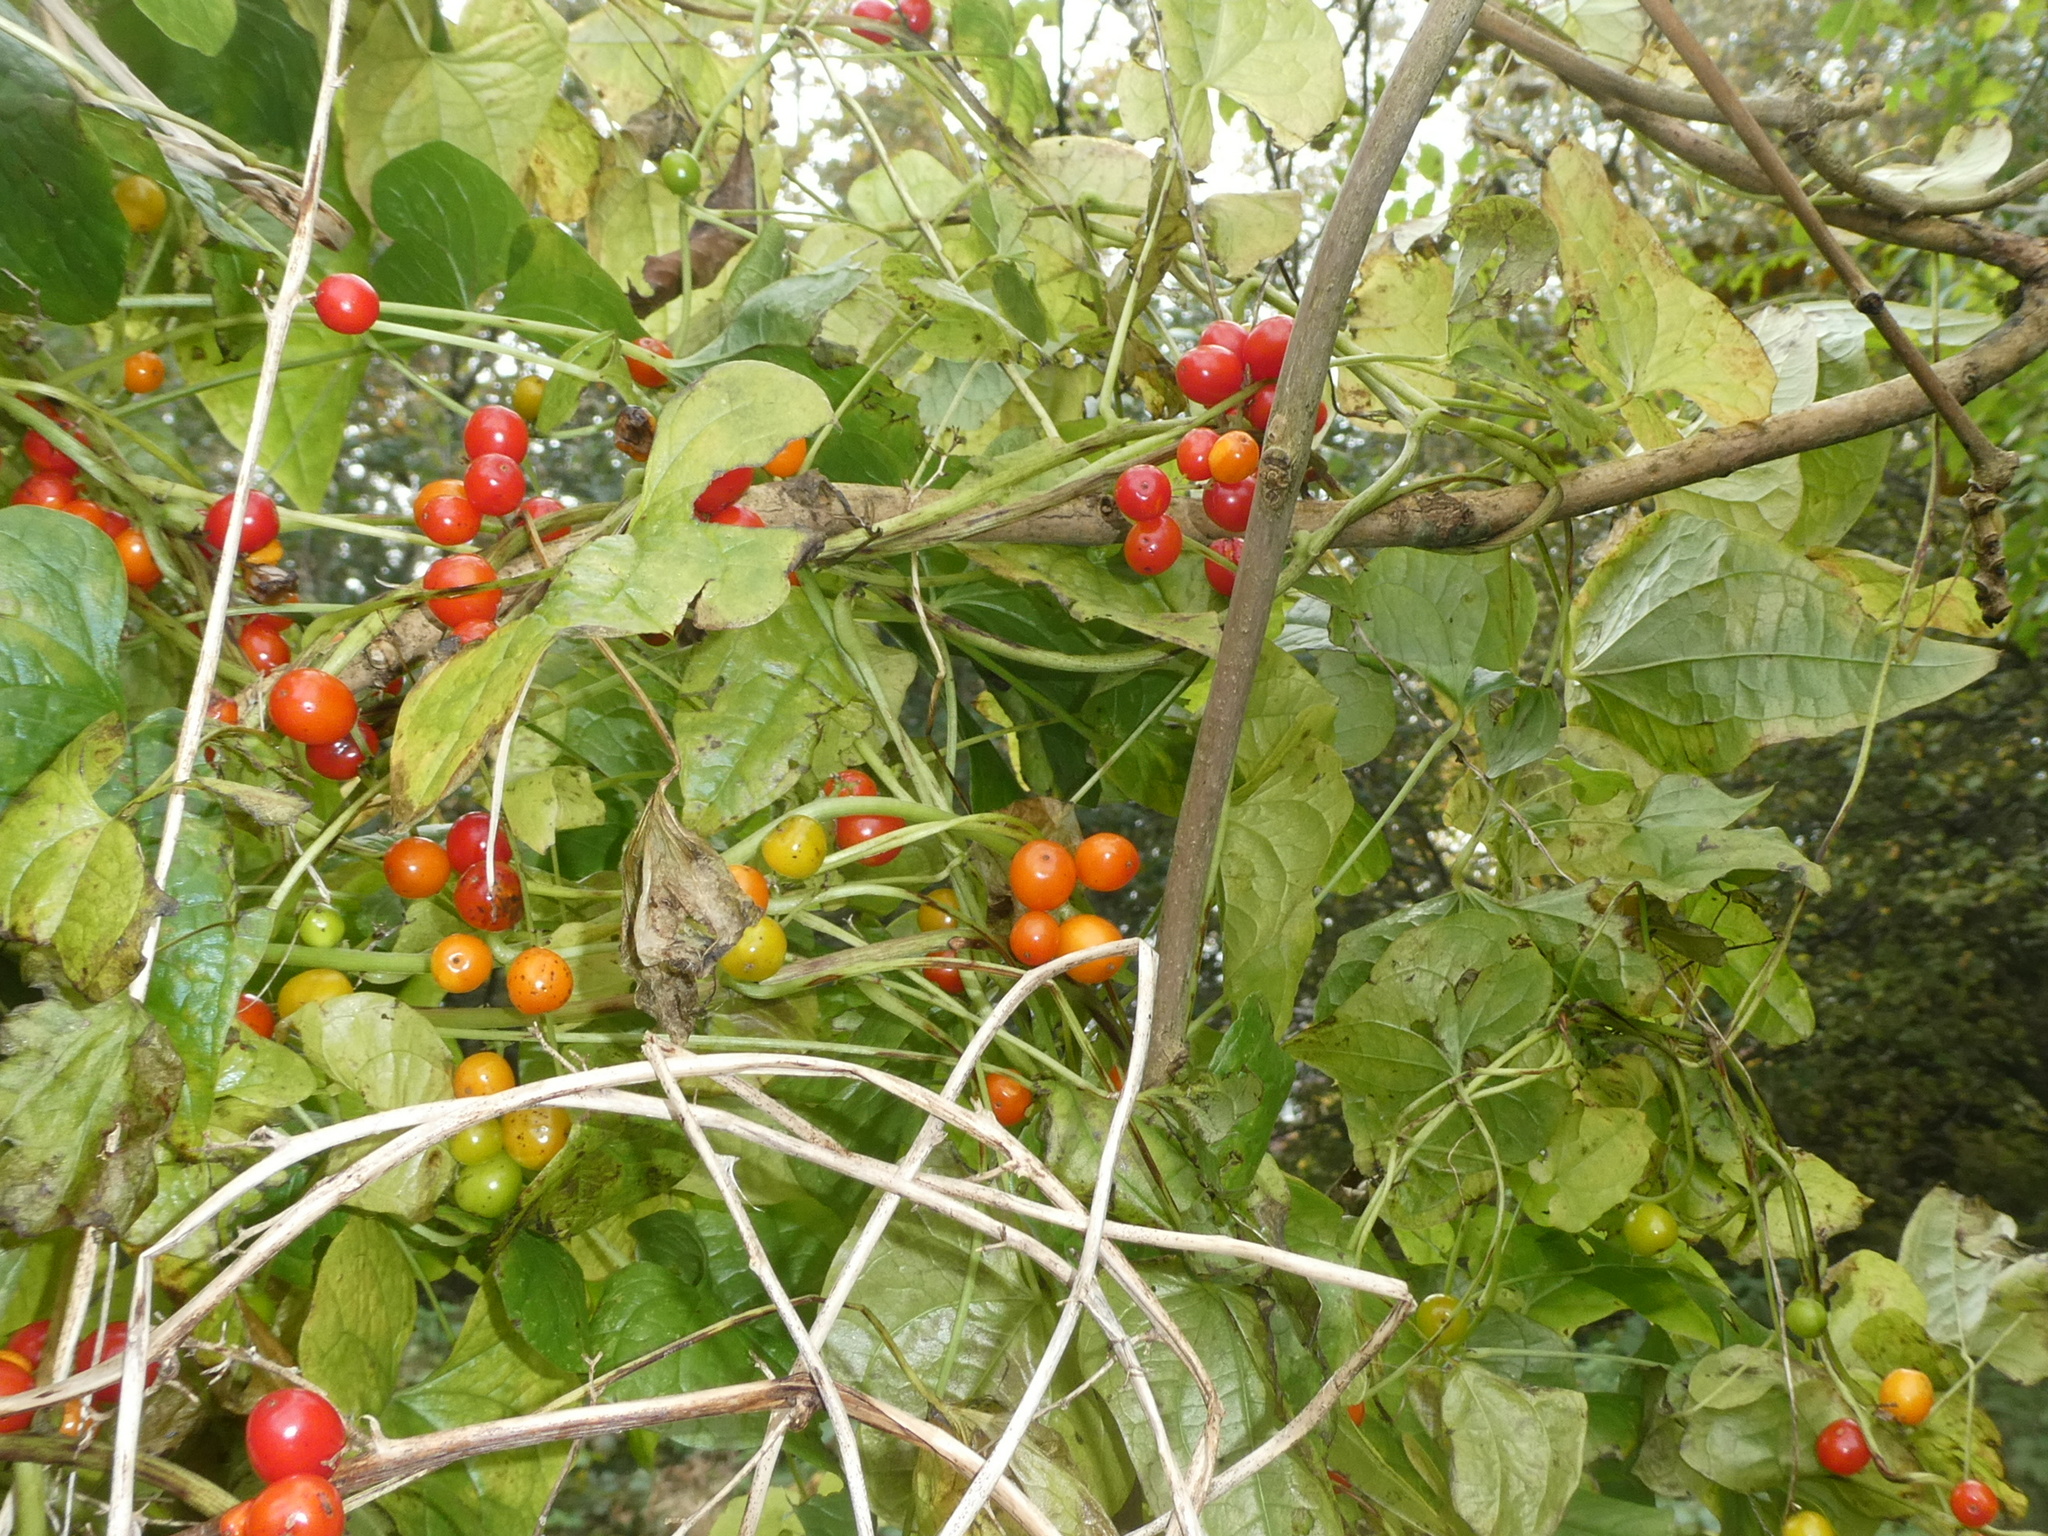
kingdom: Plantae
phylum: Tracheophyta
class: Liliopsida
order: Dioscoreales
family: Dioscoreaceae
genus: Dioscorea
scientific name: Dioscorea communis
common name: Black-bindweed
